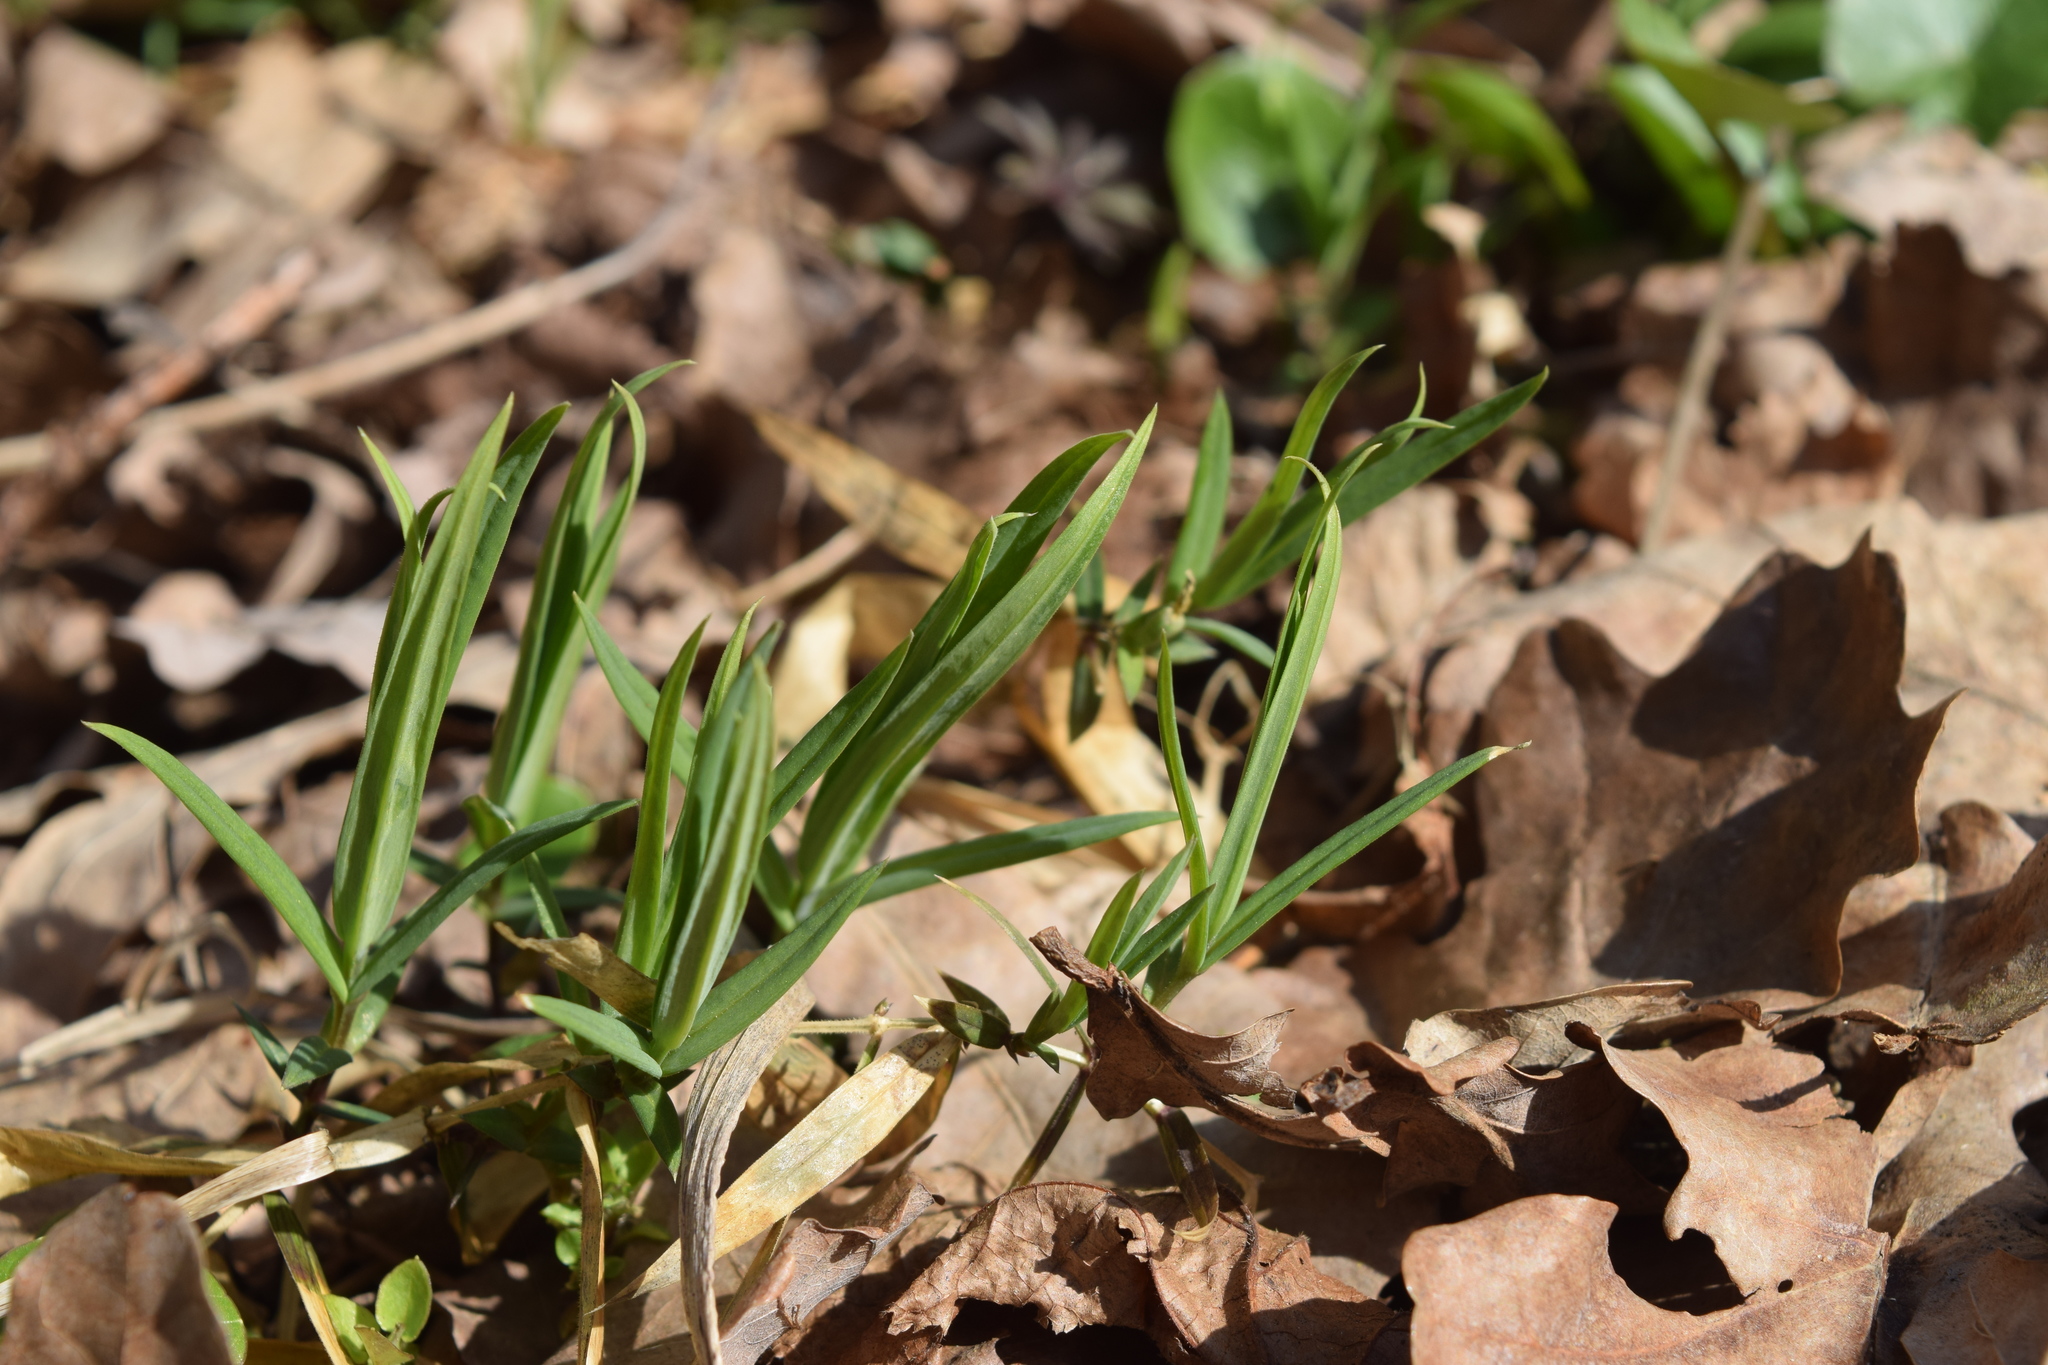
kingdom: Plantae
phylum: Tracheophyta
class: Magnoliopsida
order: Caryophyllales
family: Caryophyllaceae
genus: Rabelera
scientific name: Rabelera holostea
